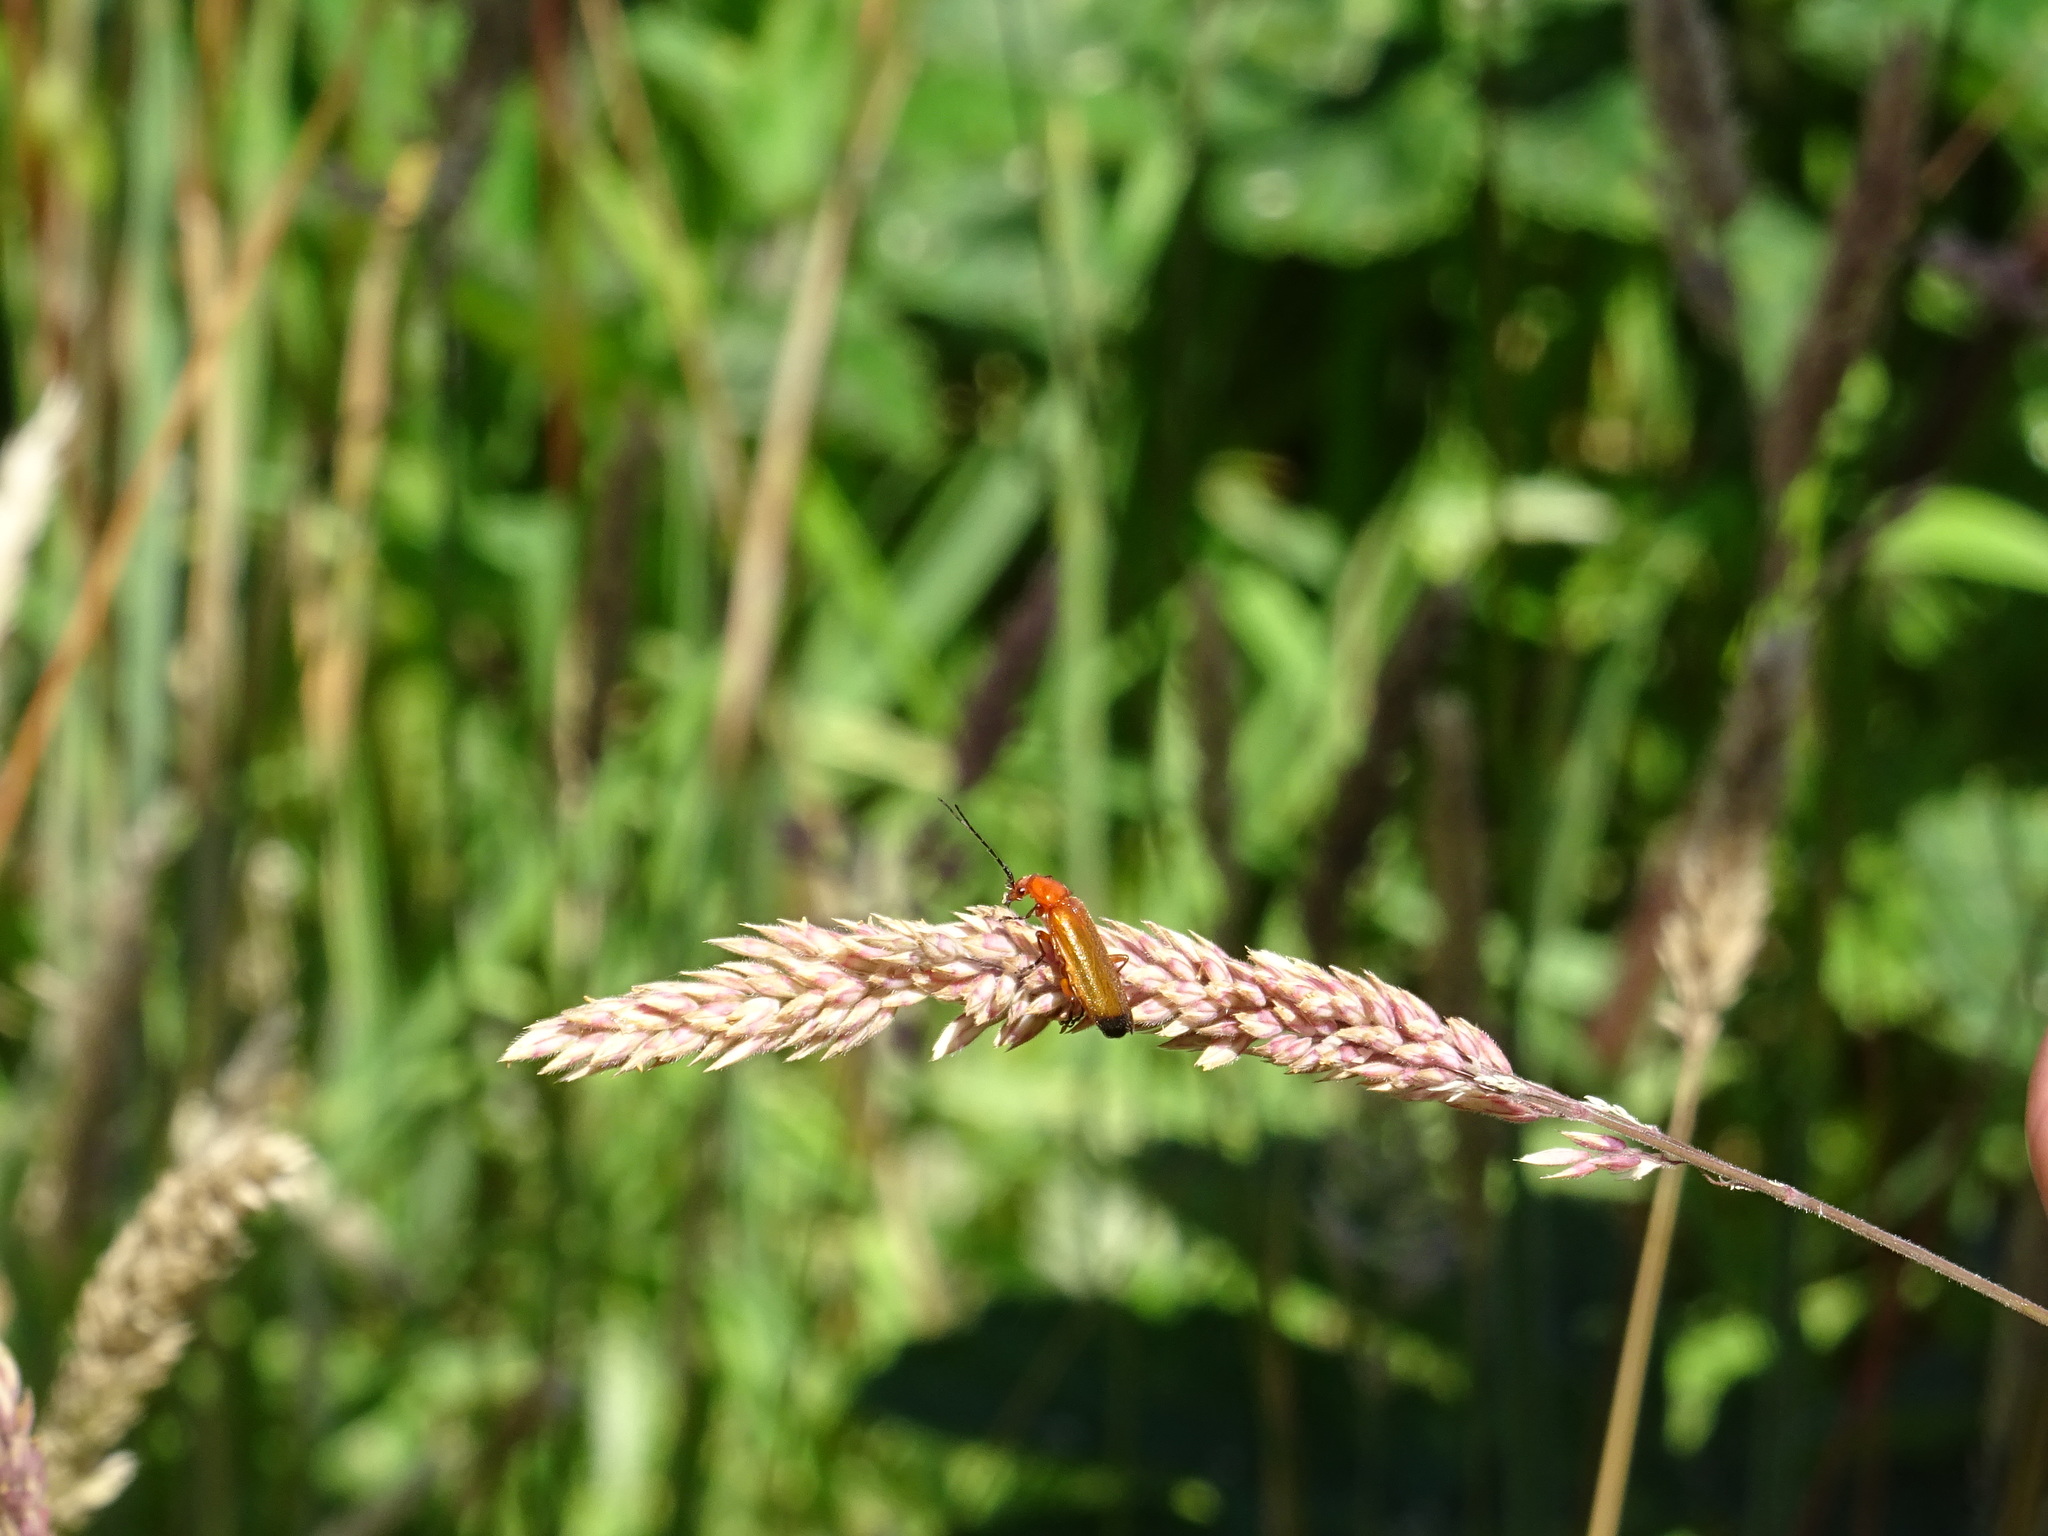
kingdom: Animalia
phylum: Arthropoda
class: Insecta
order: Coleoptera
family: Cantharidae
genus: Rhagonycha
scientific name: Rhagonycha fulva
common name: Common red soldier beetle
